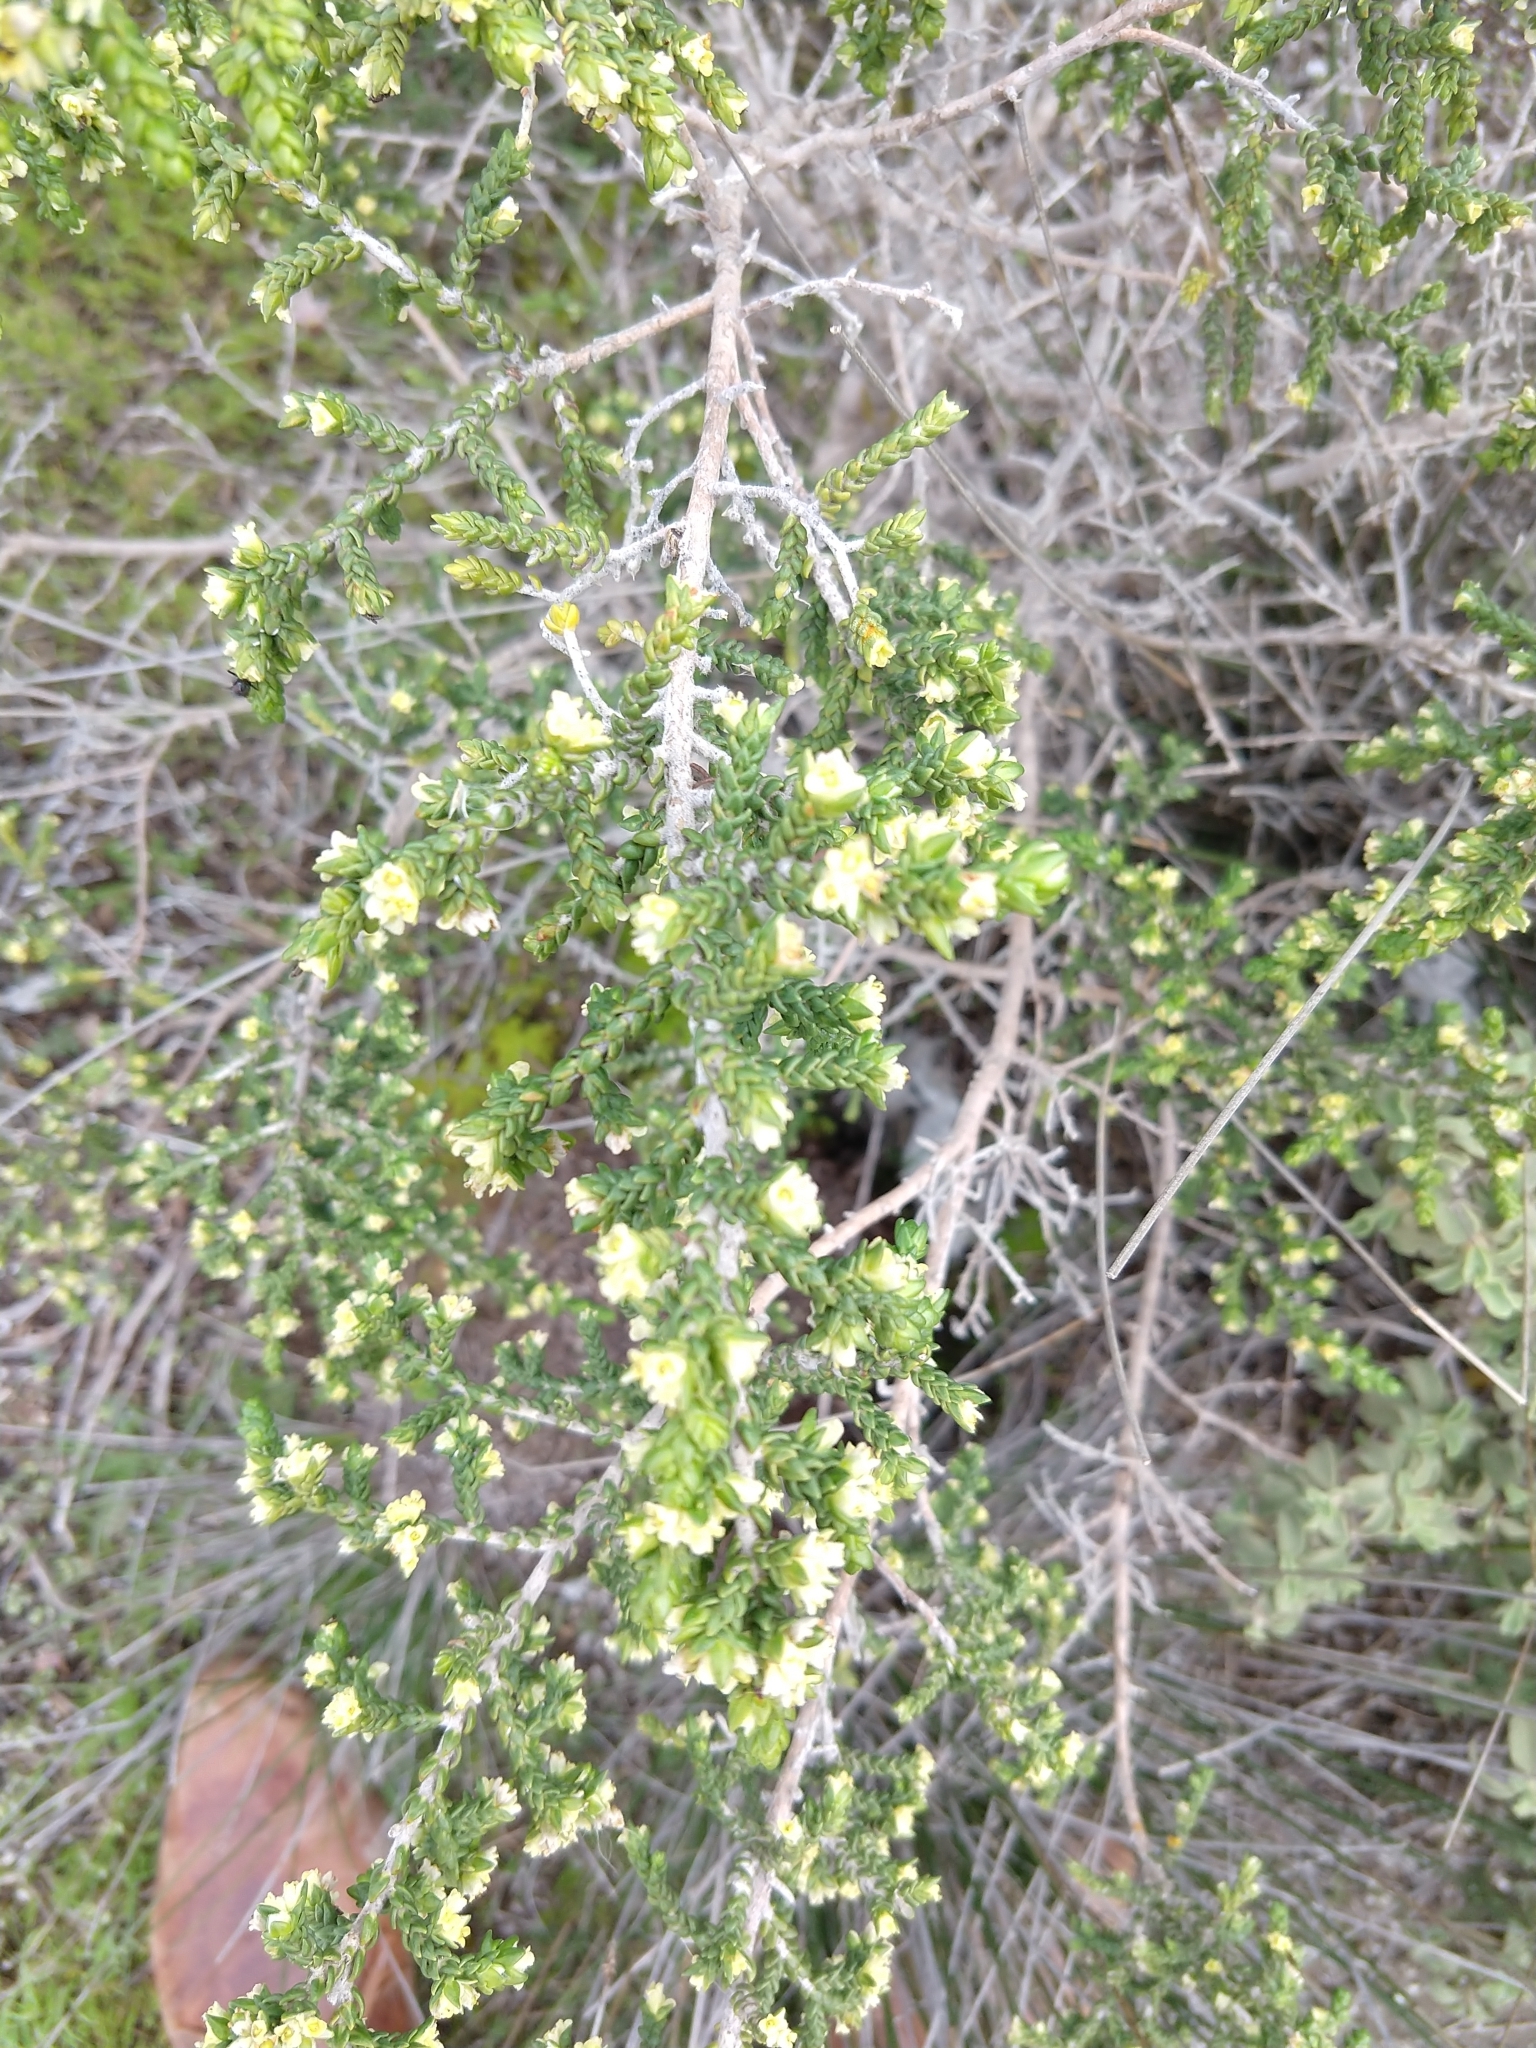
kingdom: Plantae
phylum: Tracheophyta
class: Magnoliopsida
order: Malvales
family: Thymelaeaceae
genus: Thymelaea
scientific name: Thymelaea hirsuta
